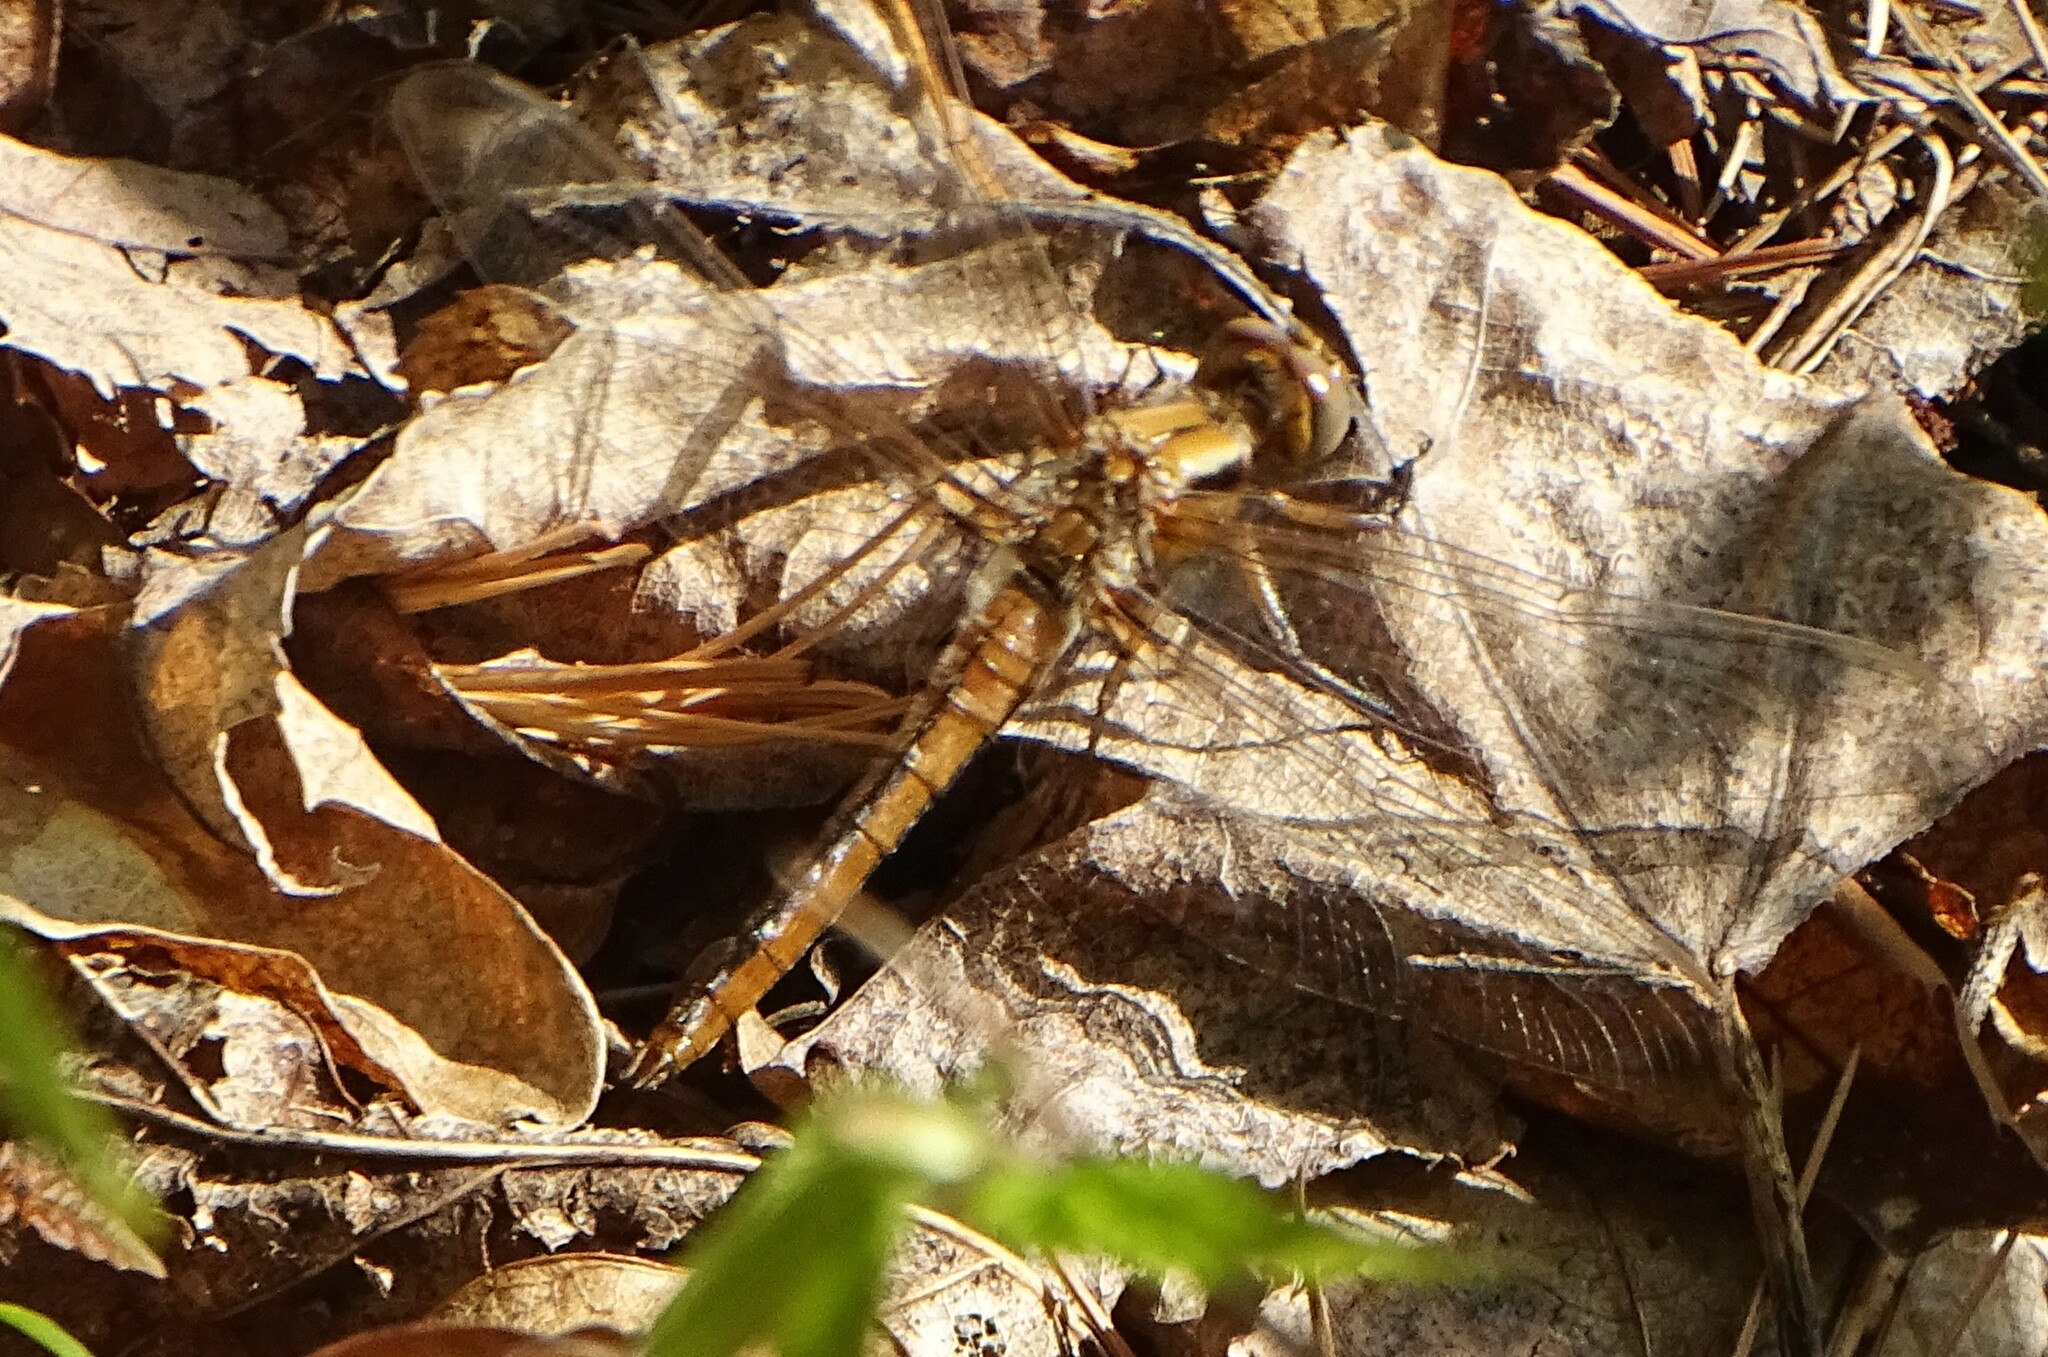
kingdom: Animalia
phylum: Arthropoda
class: Insecta
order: Odonata
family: Libellulidae
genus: Ladona
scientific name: Ladona julia
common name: Chalk-fronted corporal
